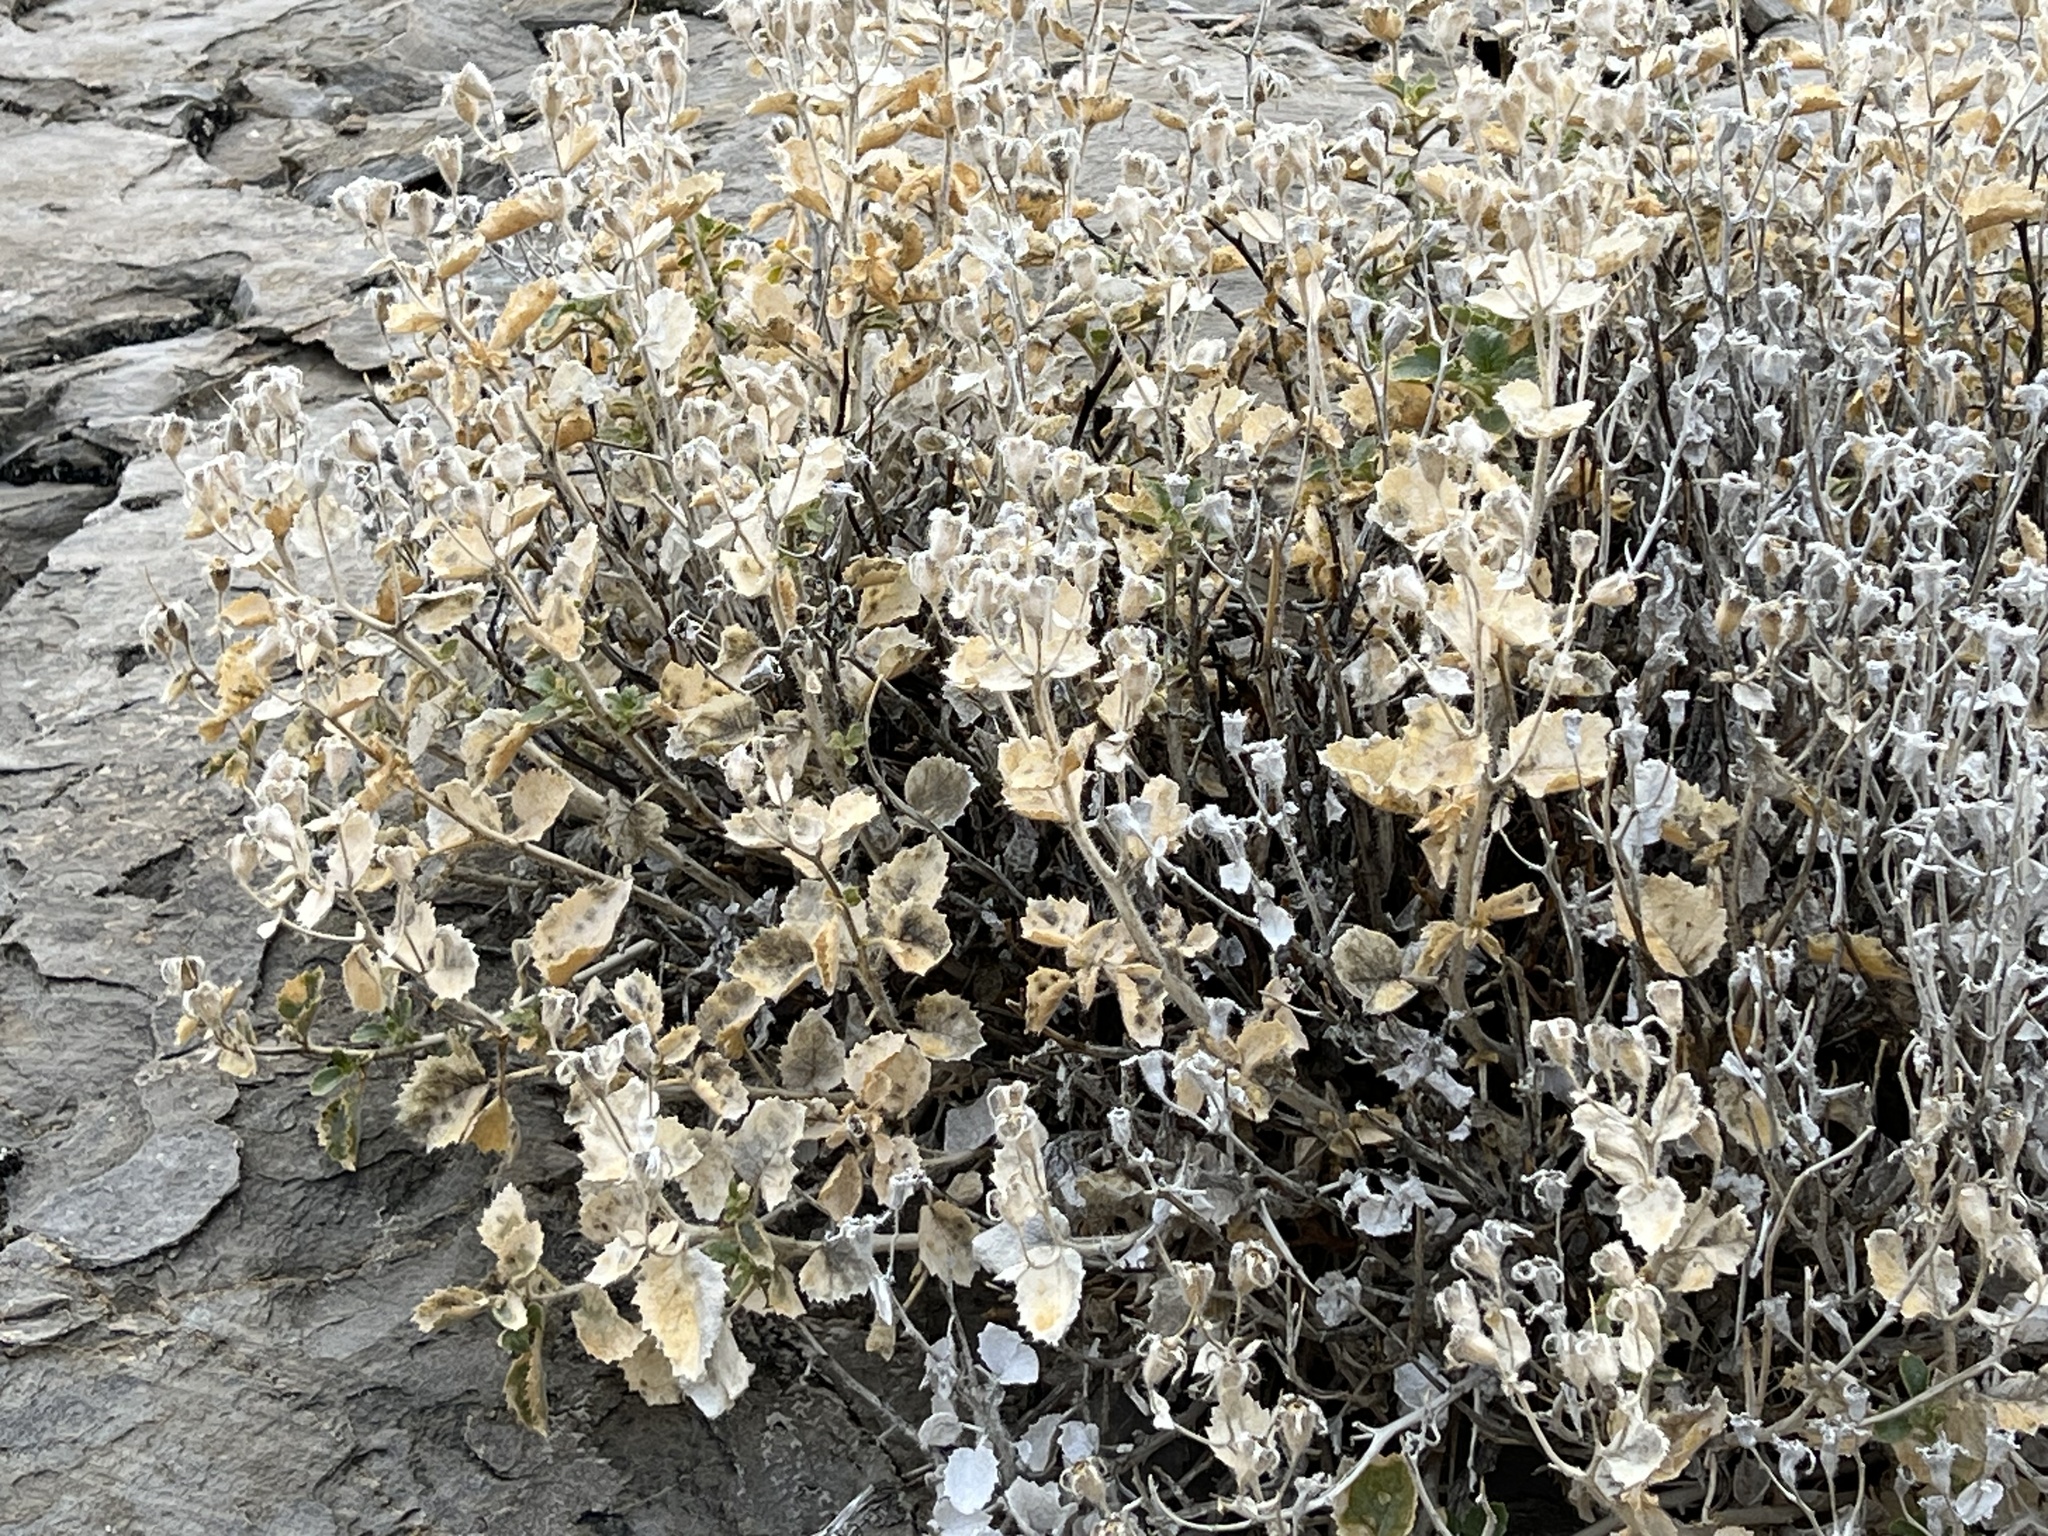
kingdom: Plantae
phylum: Tracheophyta
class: Magnoliopsida
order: Cornales
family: Loasaceae
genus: Eucnide
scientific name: Eucnide urens
